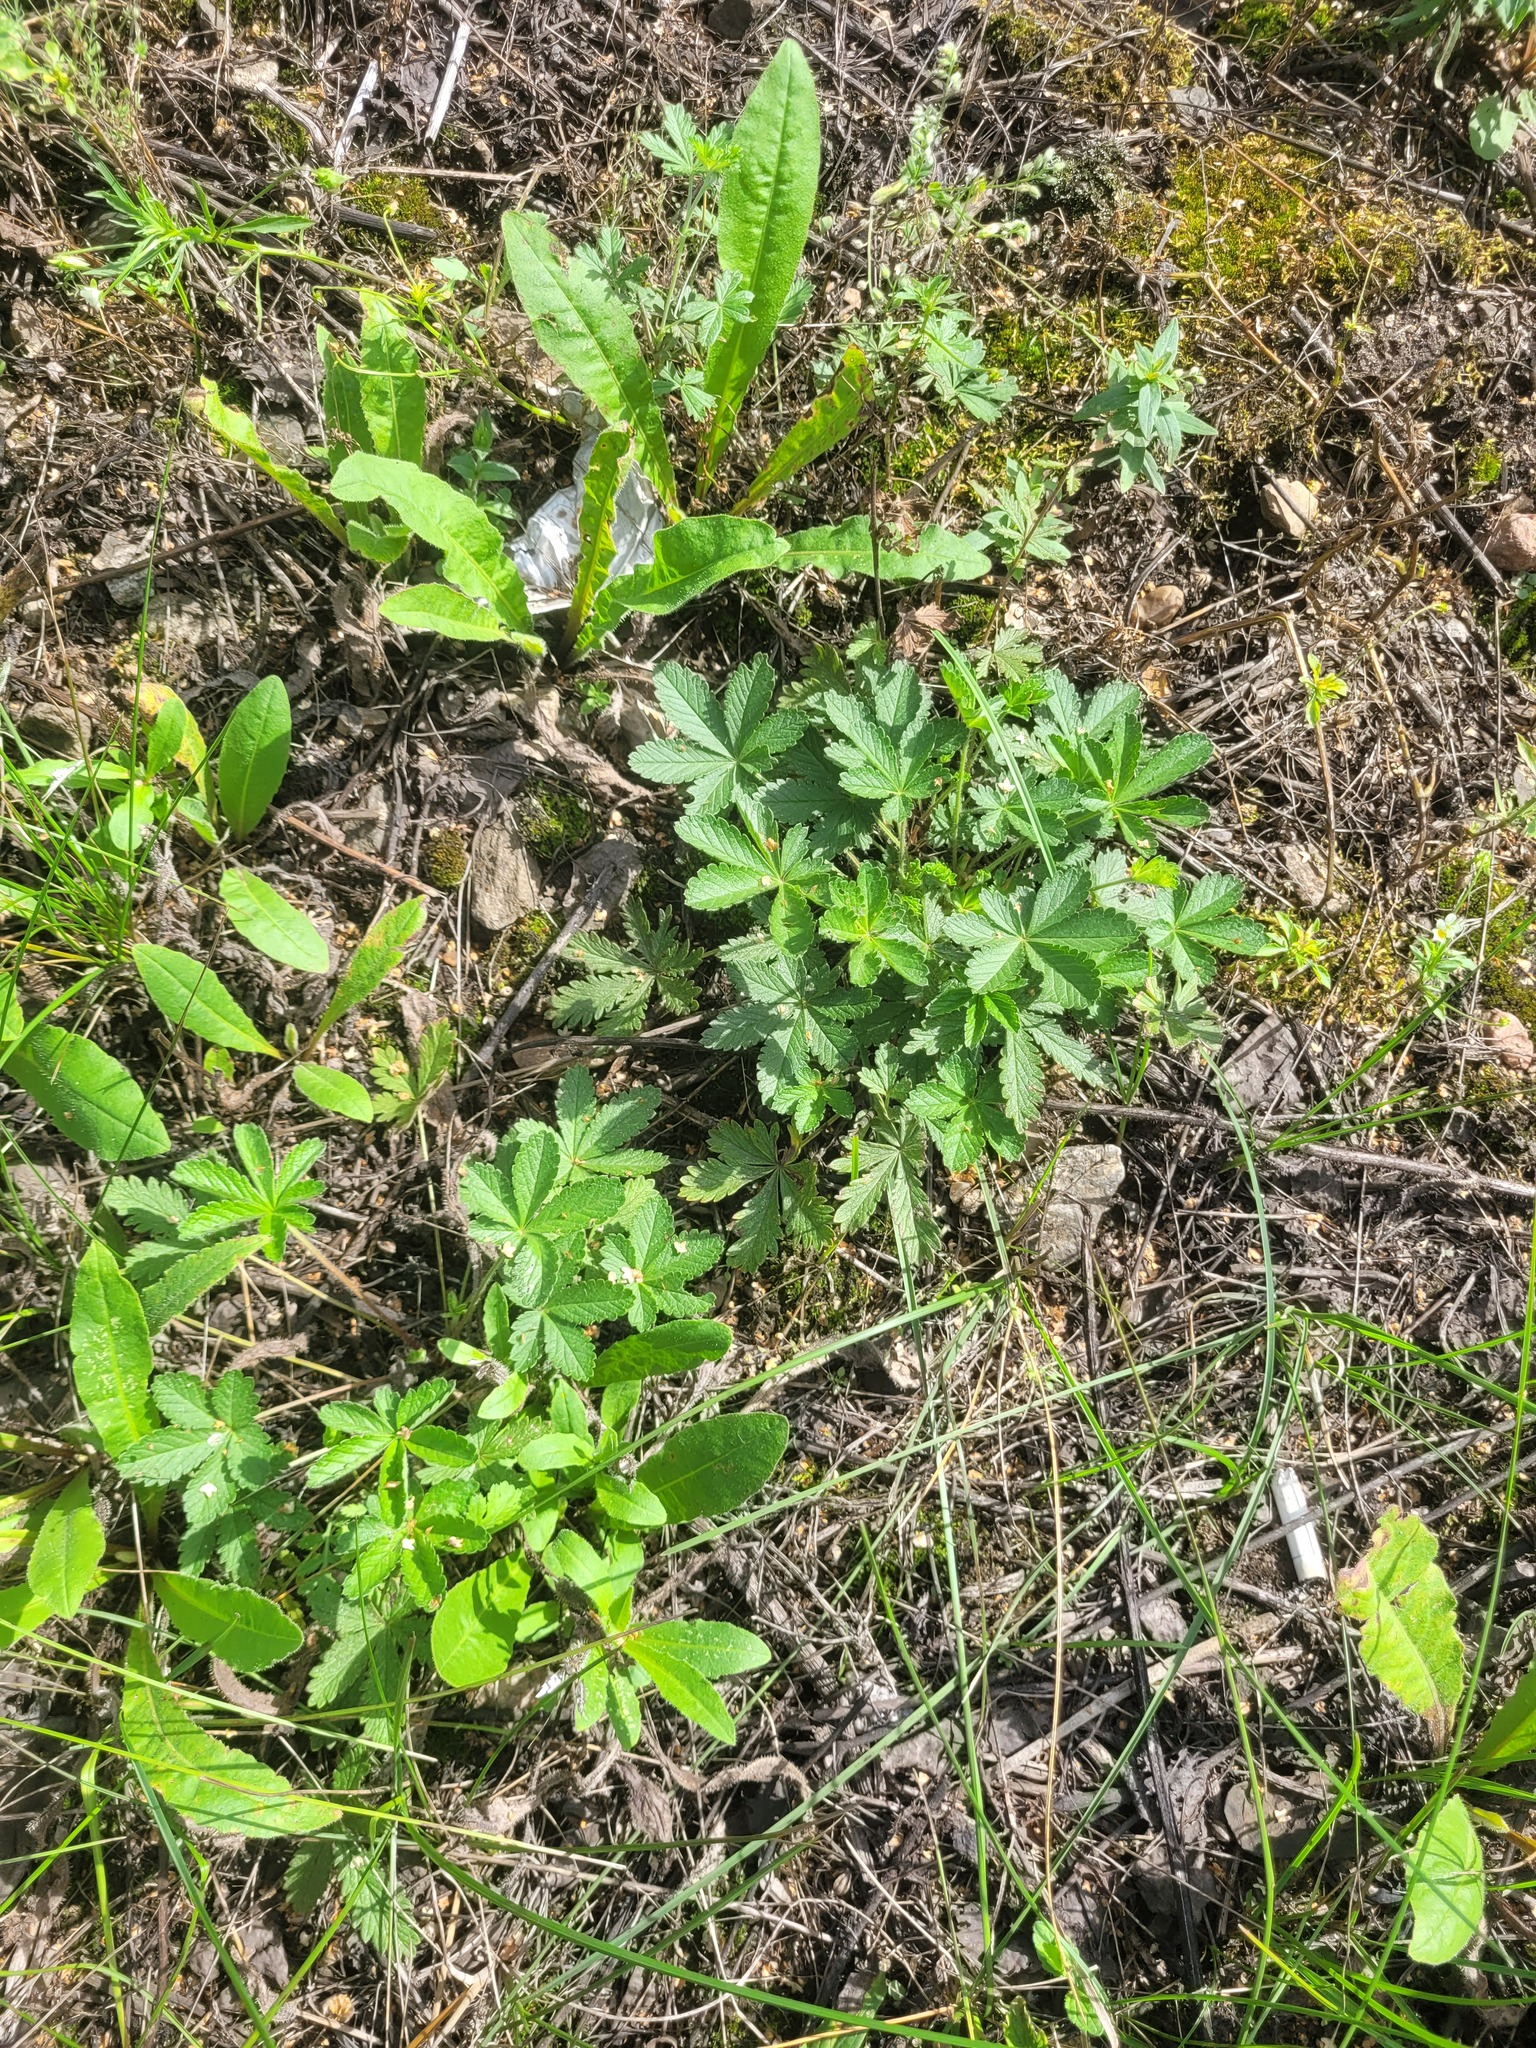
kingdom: Plantae
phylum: Tracheophyta
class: Magnoliopsida
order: Rosales
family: Rosaceae
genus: Potentilla
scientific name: Potentilla thuringiaca
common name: European cinquefoil
